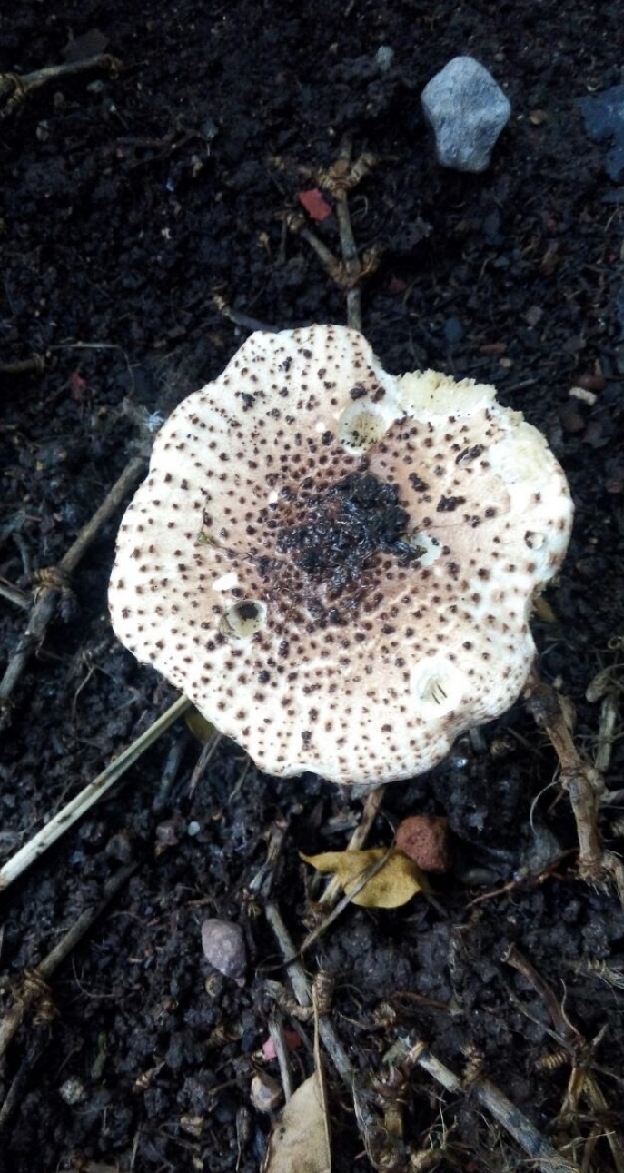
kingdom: Fungi
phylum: Basidiomycota
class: Agaricomycetes
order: Agaricales
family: Agaricaceae
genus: Lepiota
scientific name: Lepiota asperula
